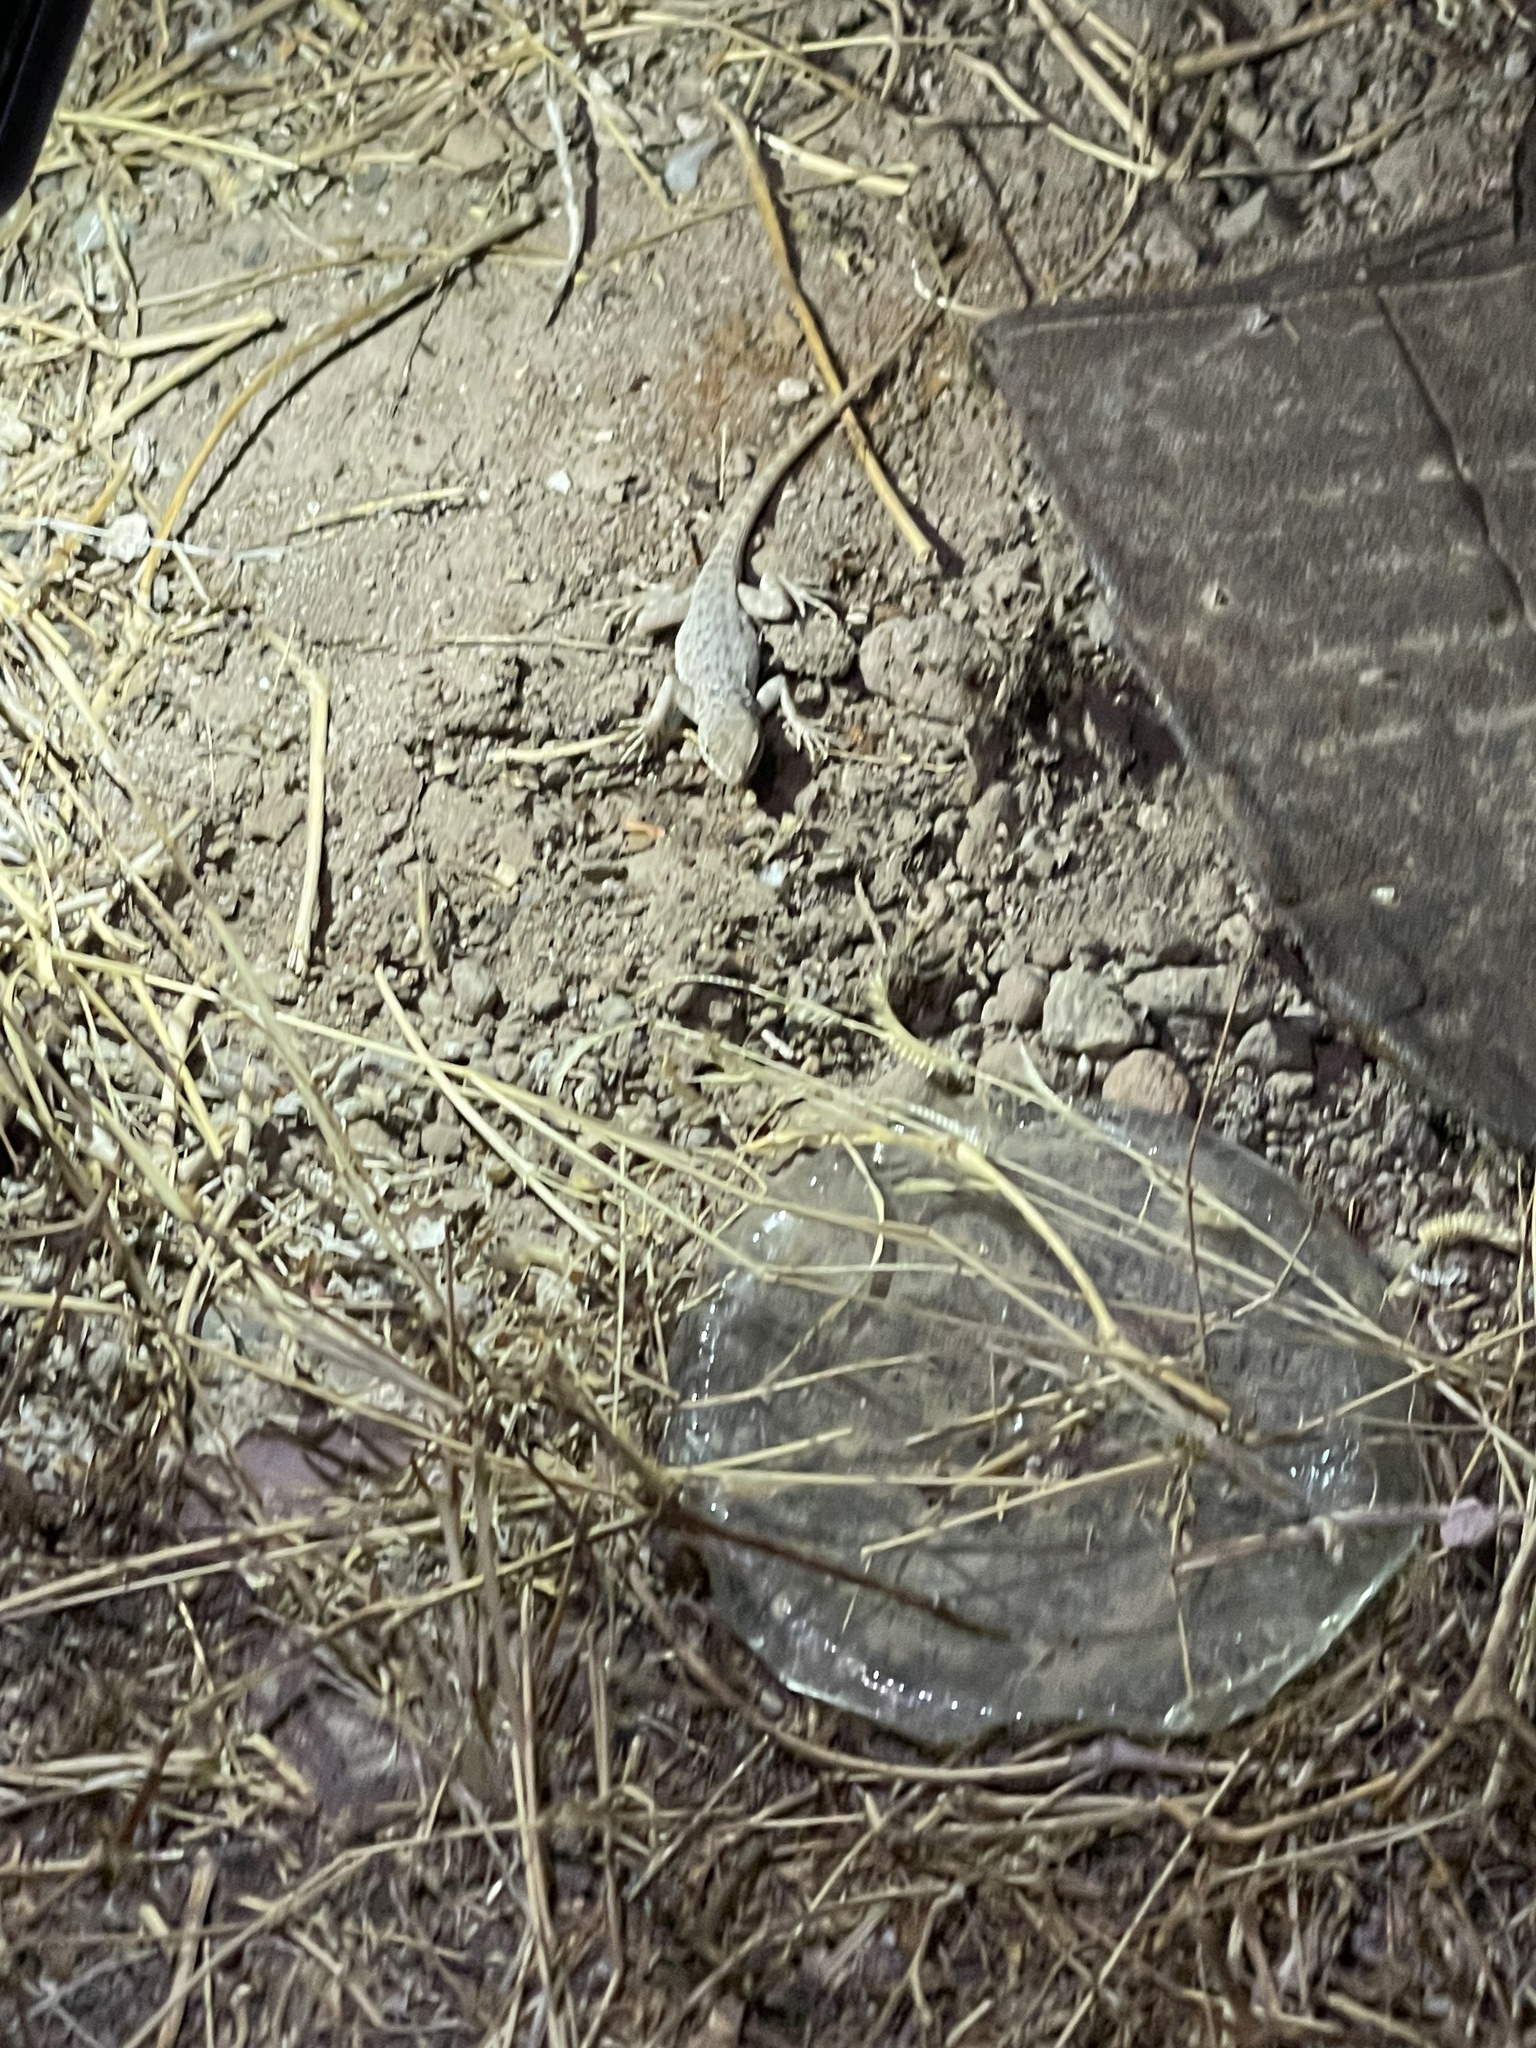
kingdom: Animalia
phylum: Chordata
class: Squamata
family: Phrynosomatidae
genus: Uta
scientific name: Uta stansburiana
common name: Side-blotched lizard
